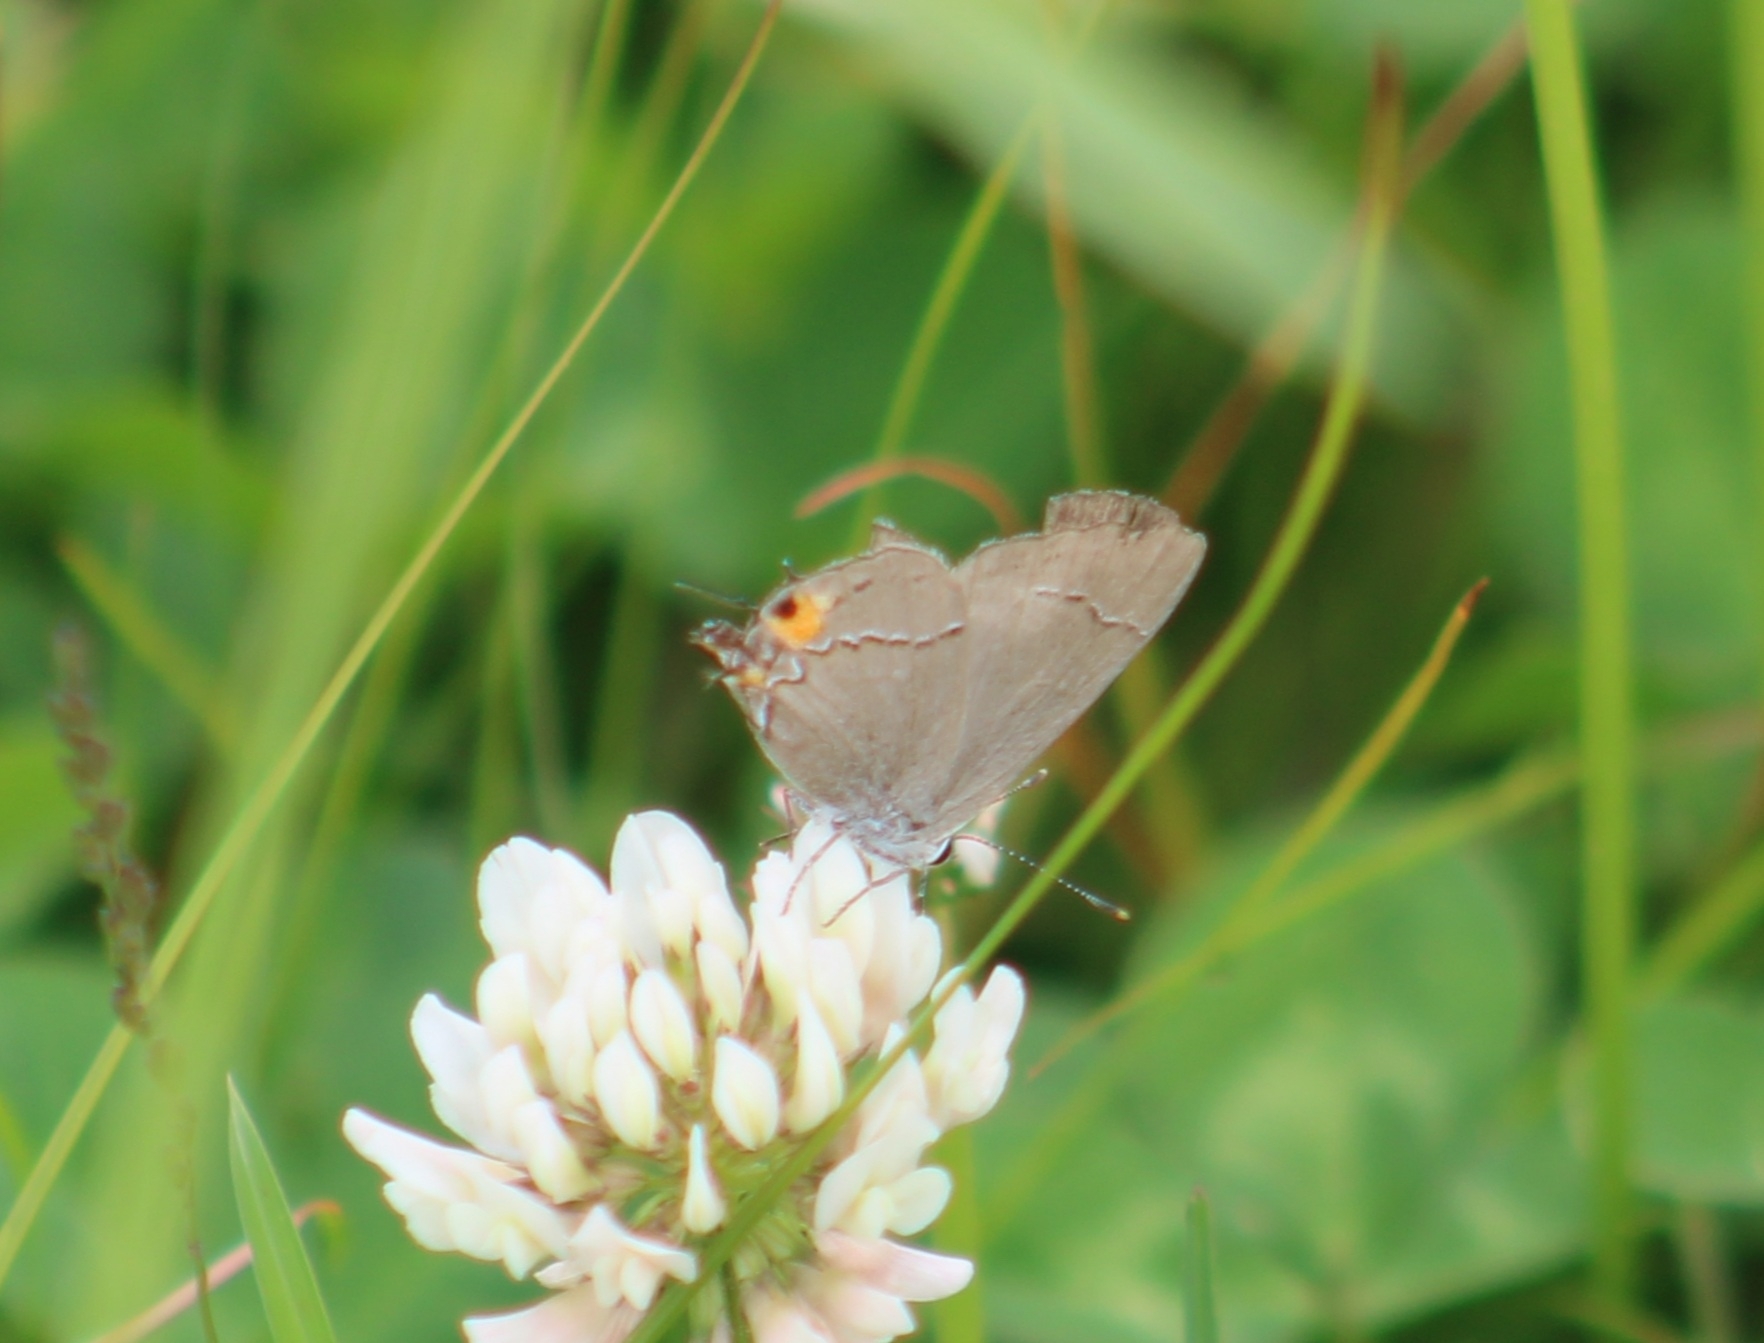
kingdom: Animalia
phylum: Arthropoda
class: Insecta
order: Lepidoptera
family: Lycaenidae
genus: Strymon
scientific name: Strymon melinus
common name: Gray hairstreak
